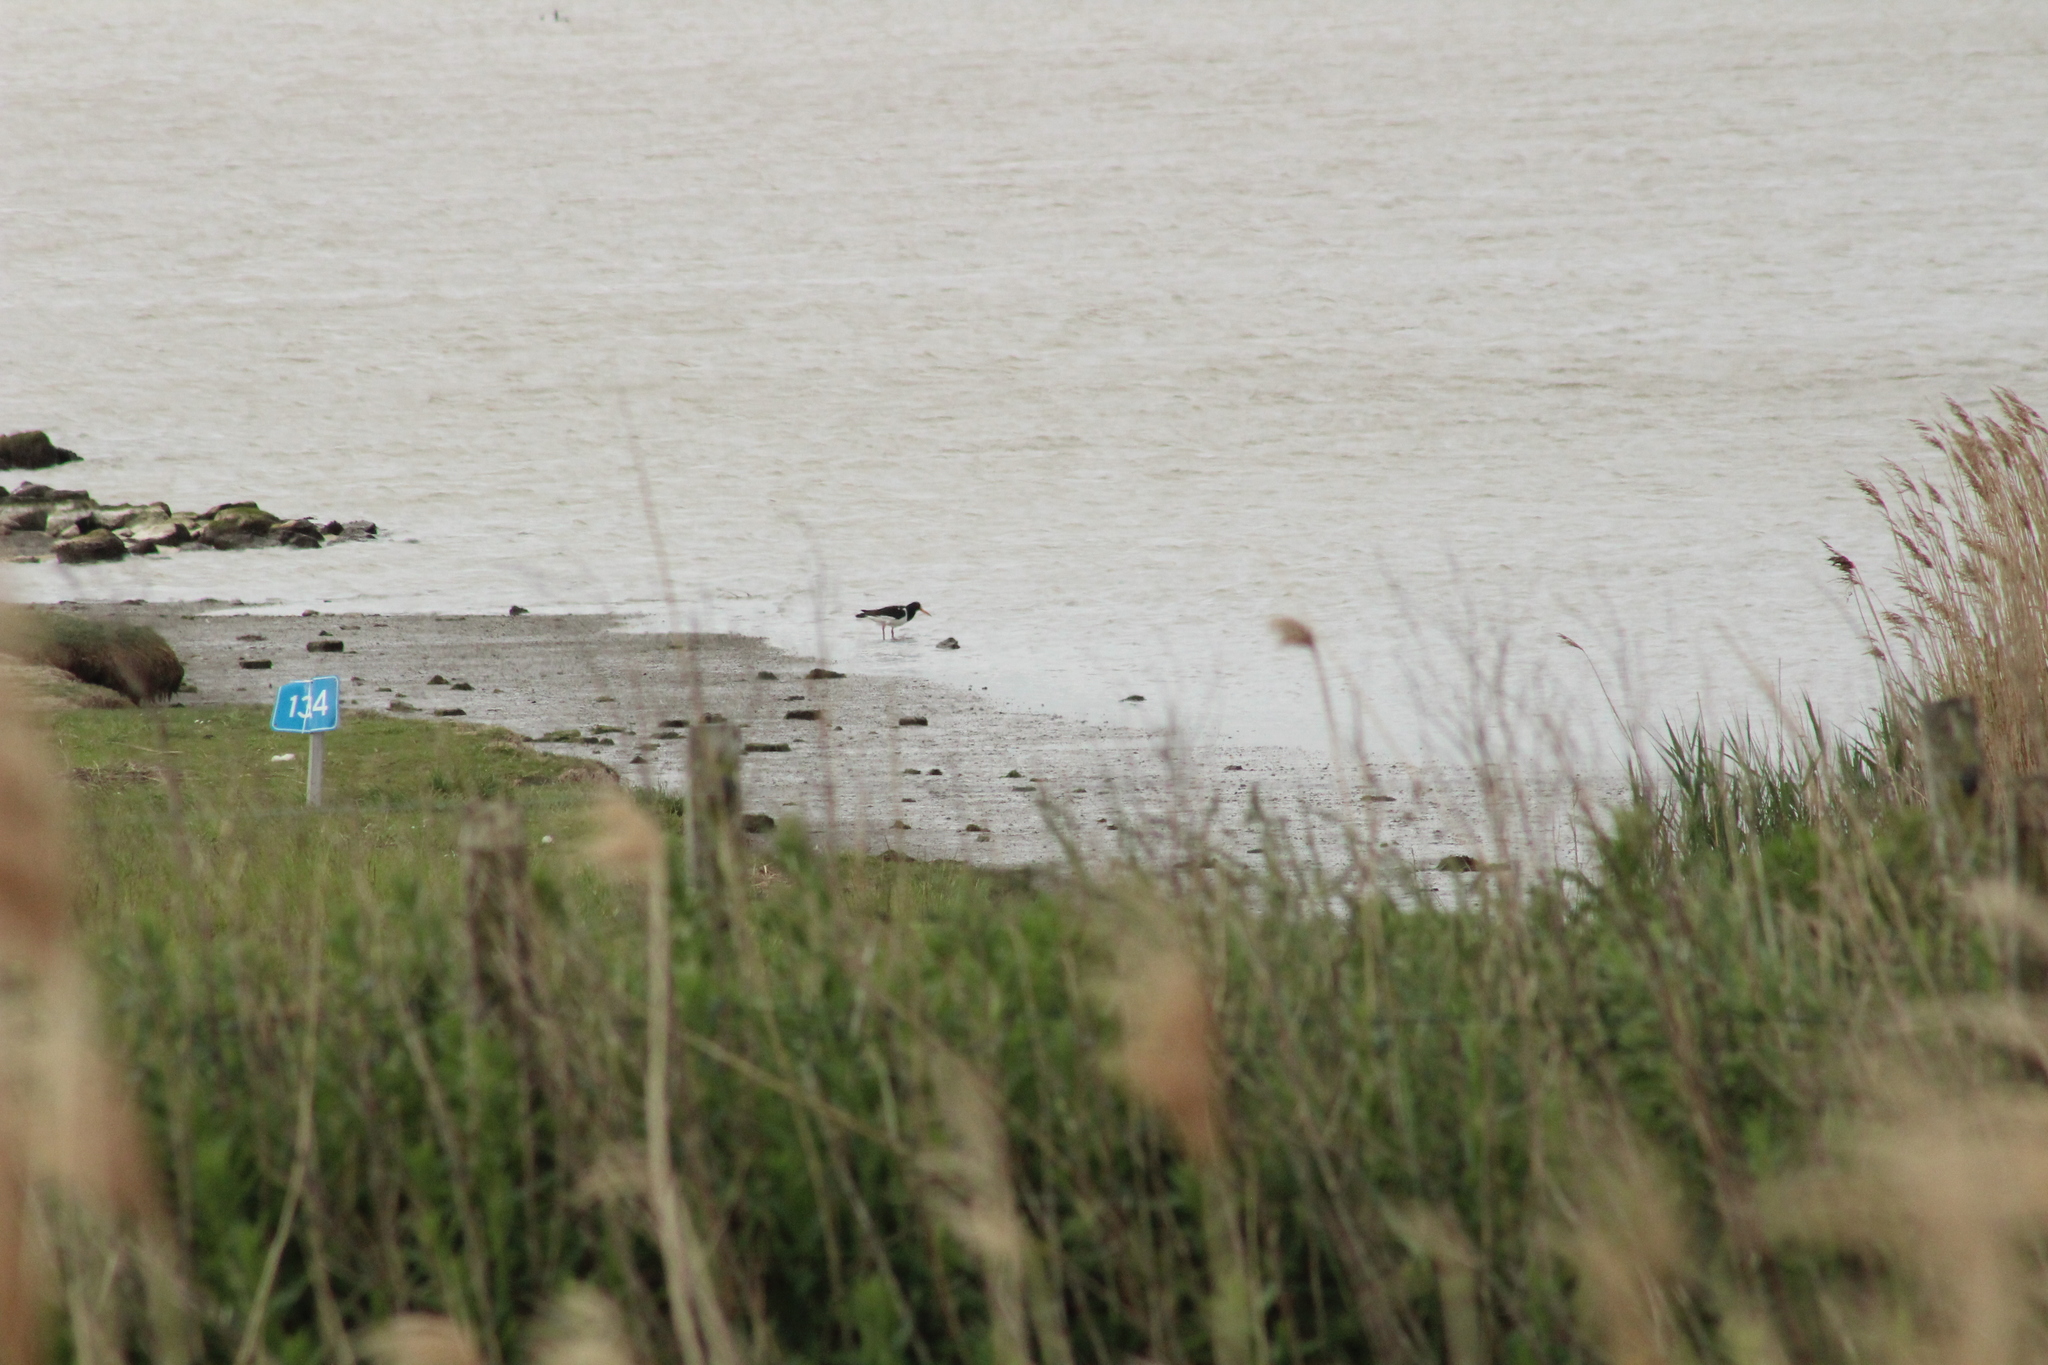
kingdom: Animalia
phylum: Chordata
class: Aves
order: Charadriiformes
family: Haematopodidae
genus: Haematopus
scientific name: Haematopus ostralegus
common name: Eurasian oystercatcher
